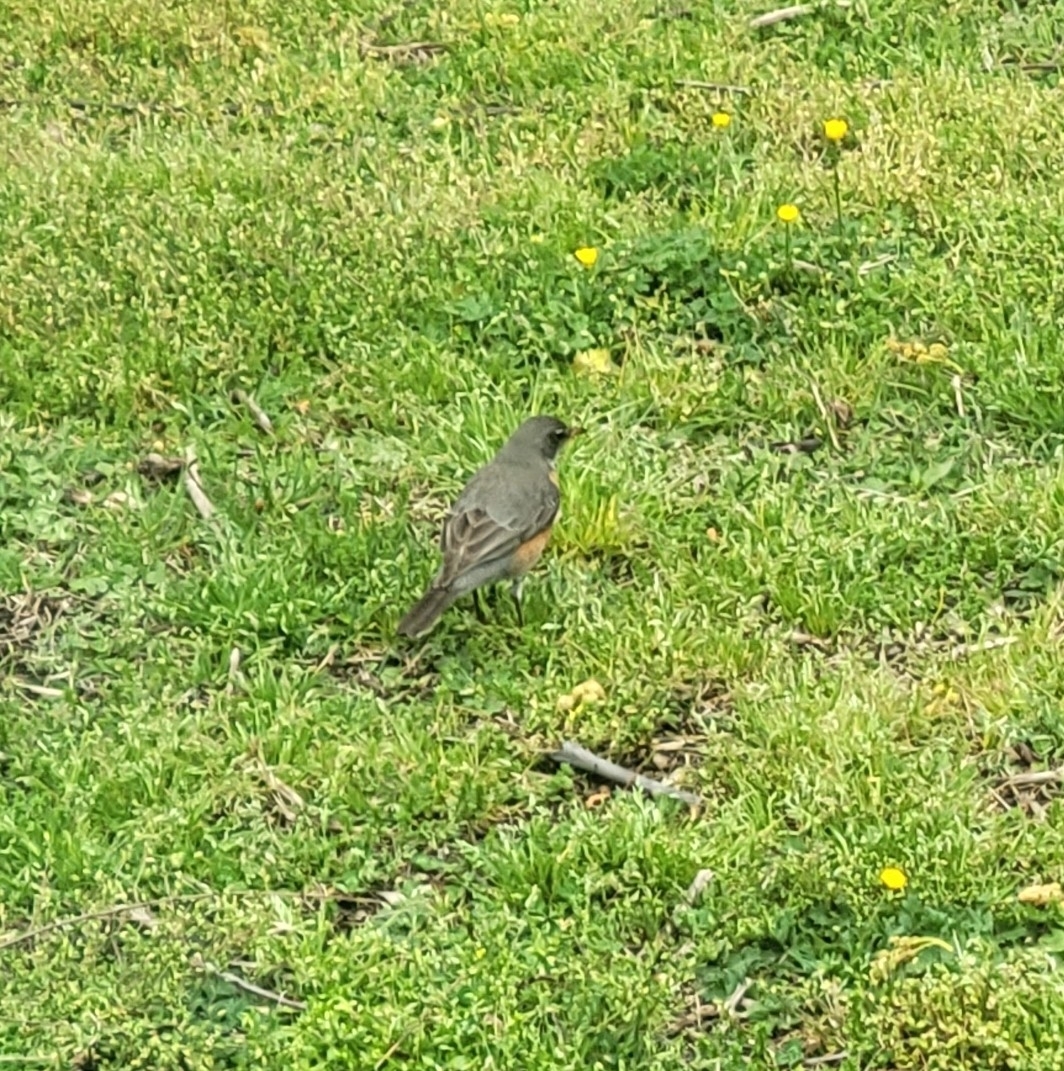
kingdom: Animalia
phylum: Chordata
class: Aves
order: Passeriformes
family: Turdidae
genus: Turdus
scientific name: Turdus migratorius
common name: American robin
